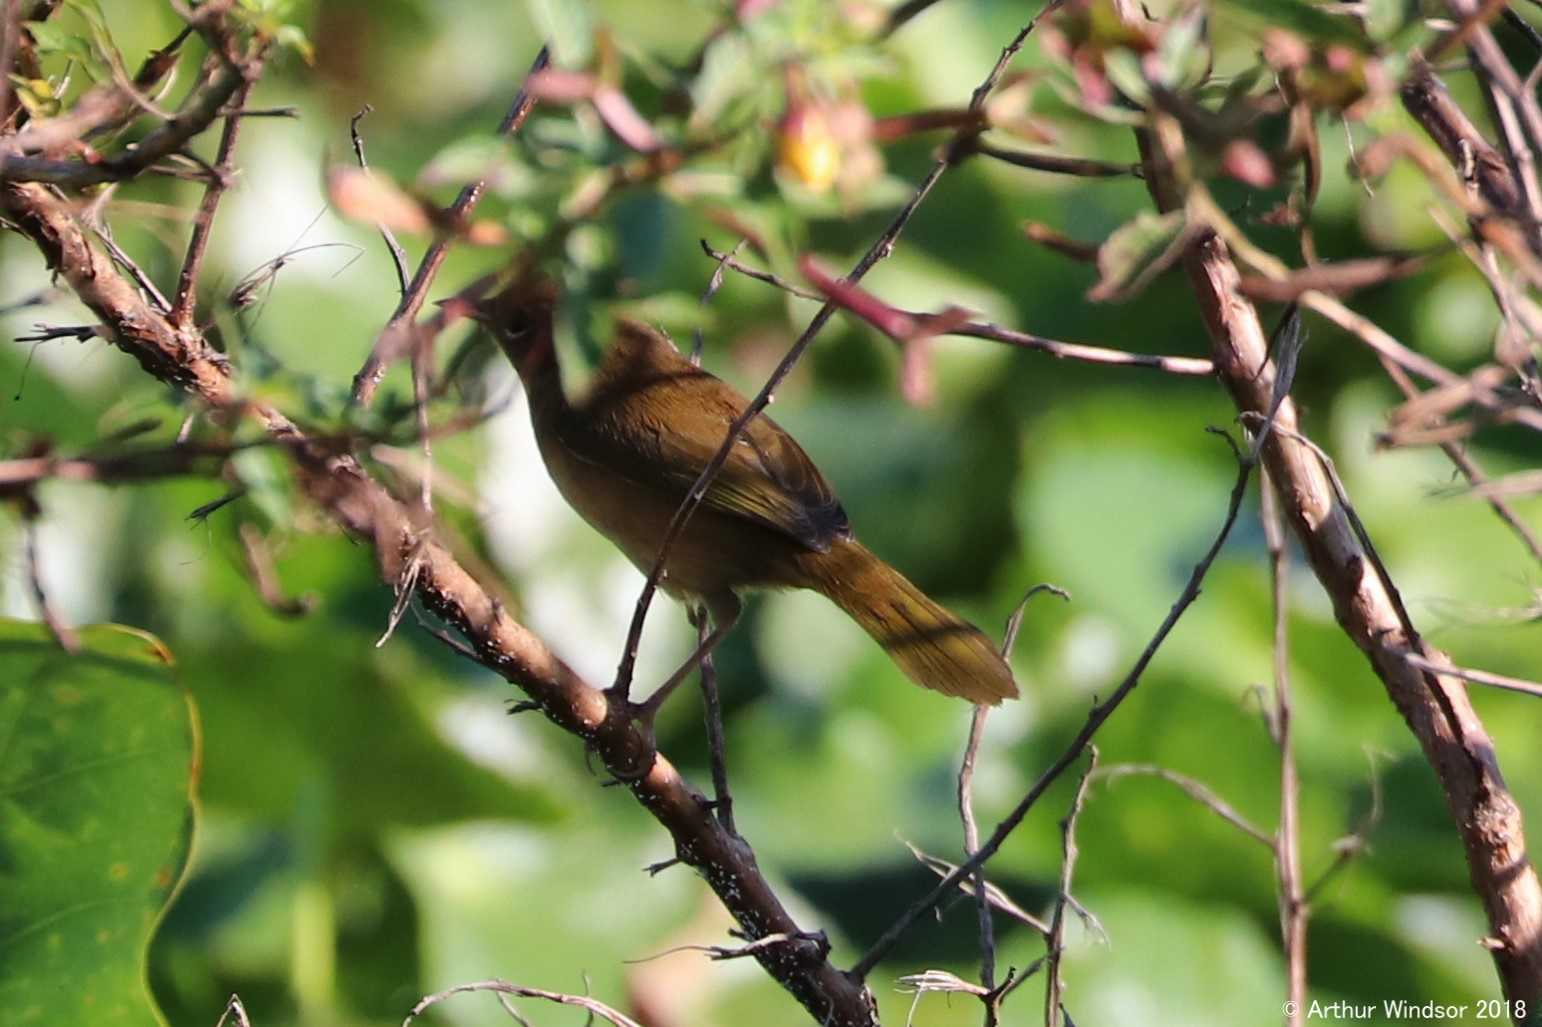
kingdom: Animalia
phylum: Chordata
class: Aves
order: Passeriformes
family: Parulidae
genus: Geothlypis
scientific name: Geothlypis trichas
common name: Common yellowthroat
